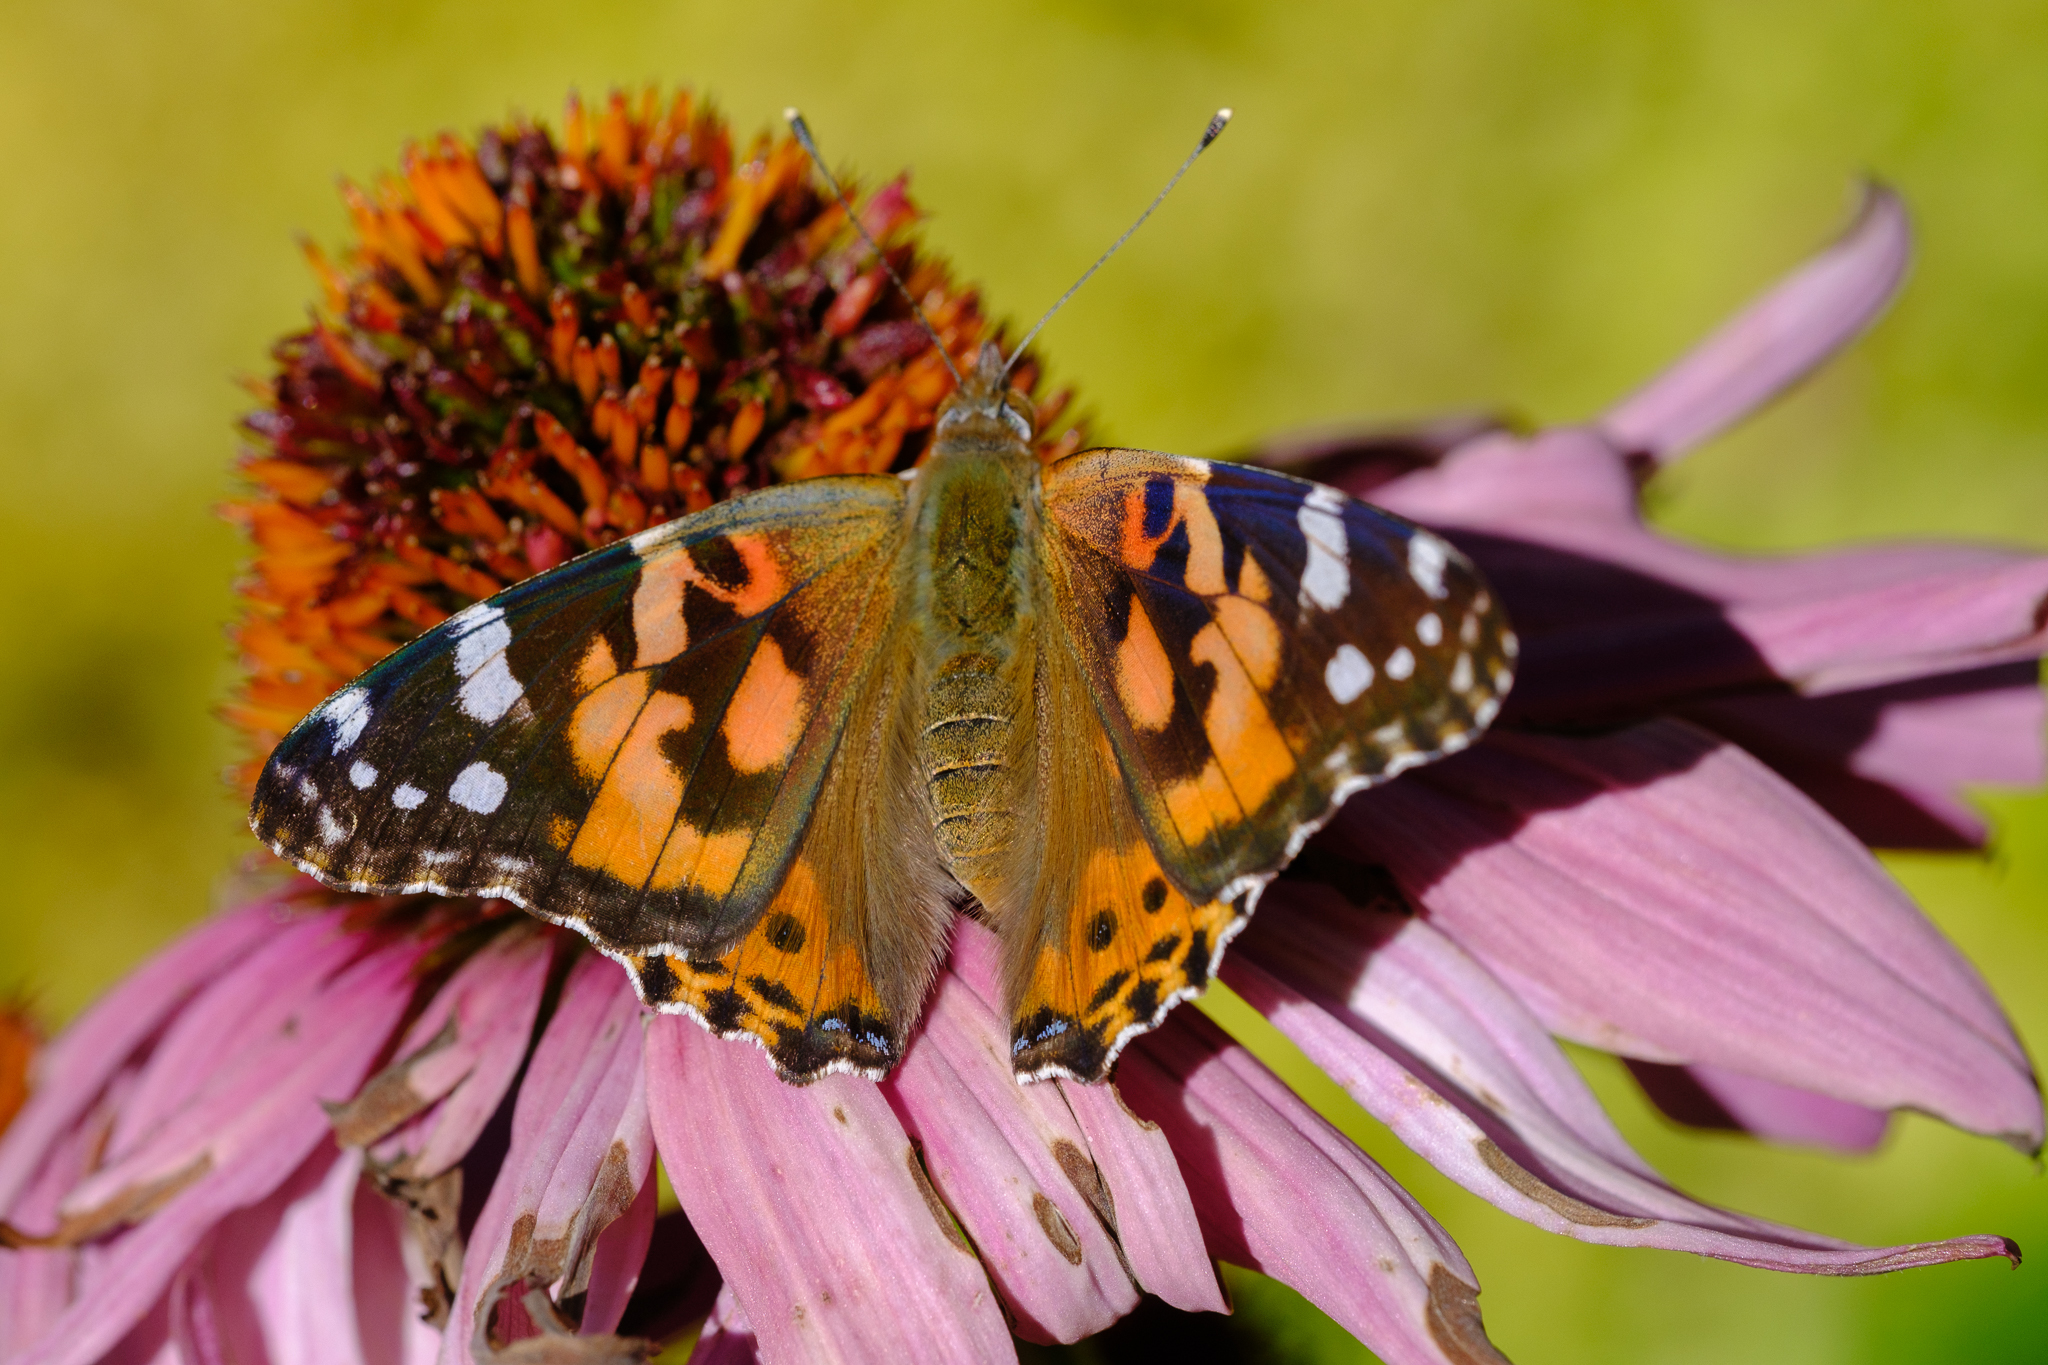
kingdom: Animalia
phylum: Arthropoda
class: Insecta
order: Lepidoptera
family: Nymphalidae
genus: Vanessa
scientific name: Vanessa cardui
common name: Painted lady
